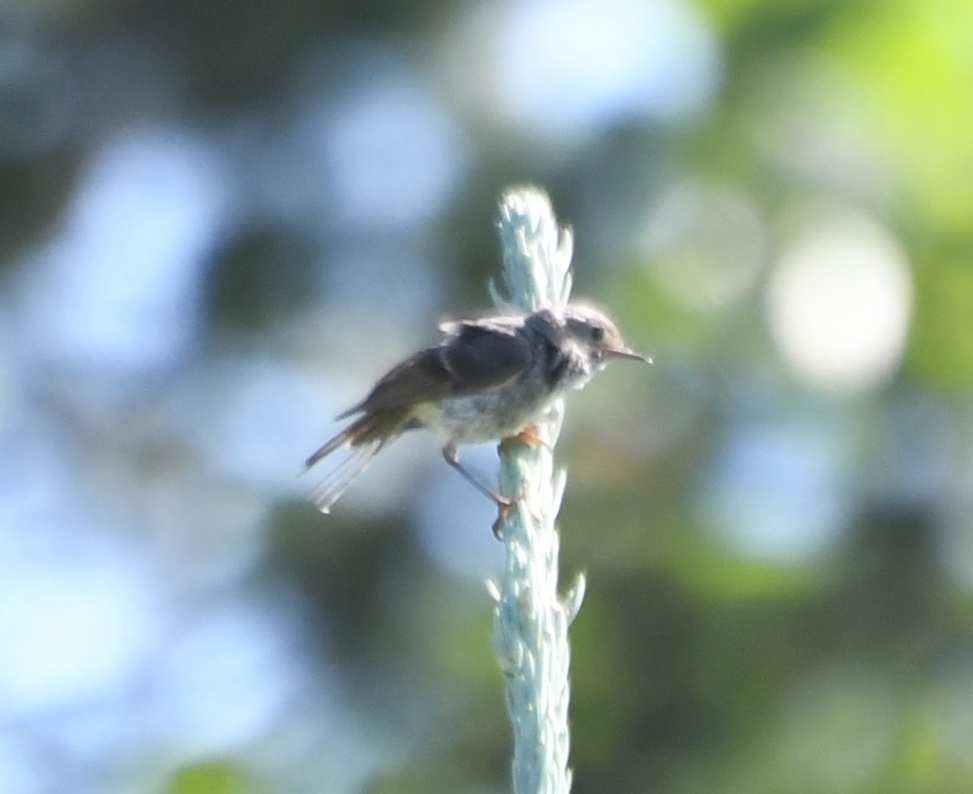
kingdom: Animalia
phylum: Chordata
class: Aves
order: Passeriformes
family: Regulidae
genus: Regulus
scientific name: Regulus calendula
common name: Ruby-crowned kinglet
